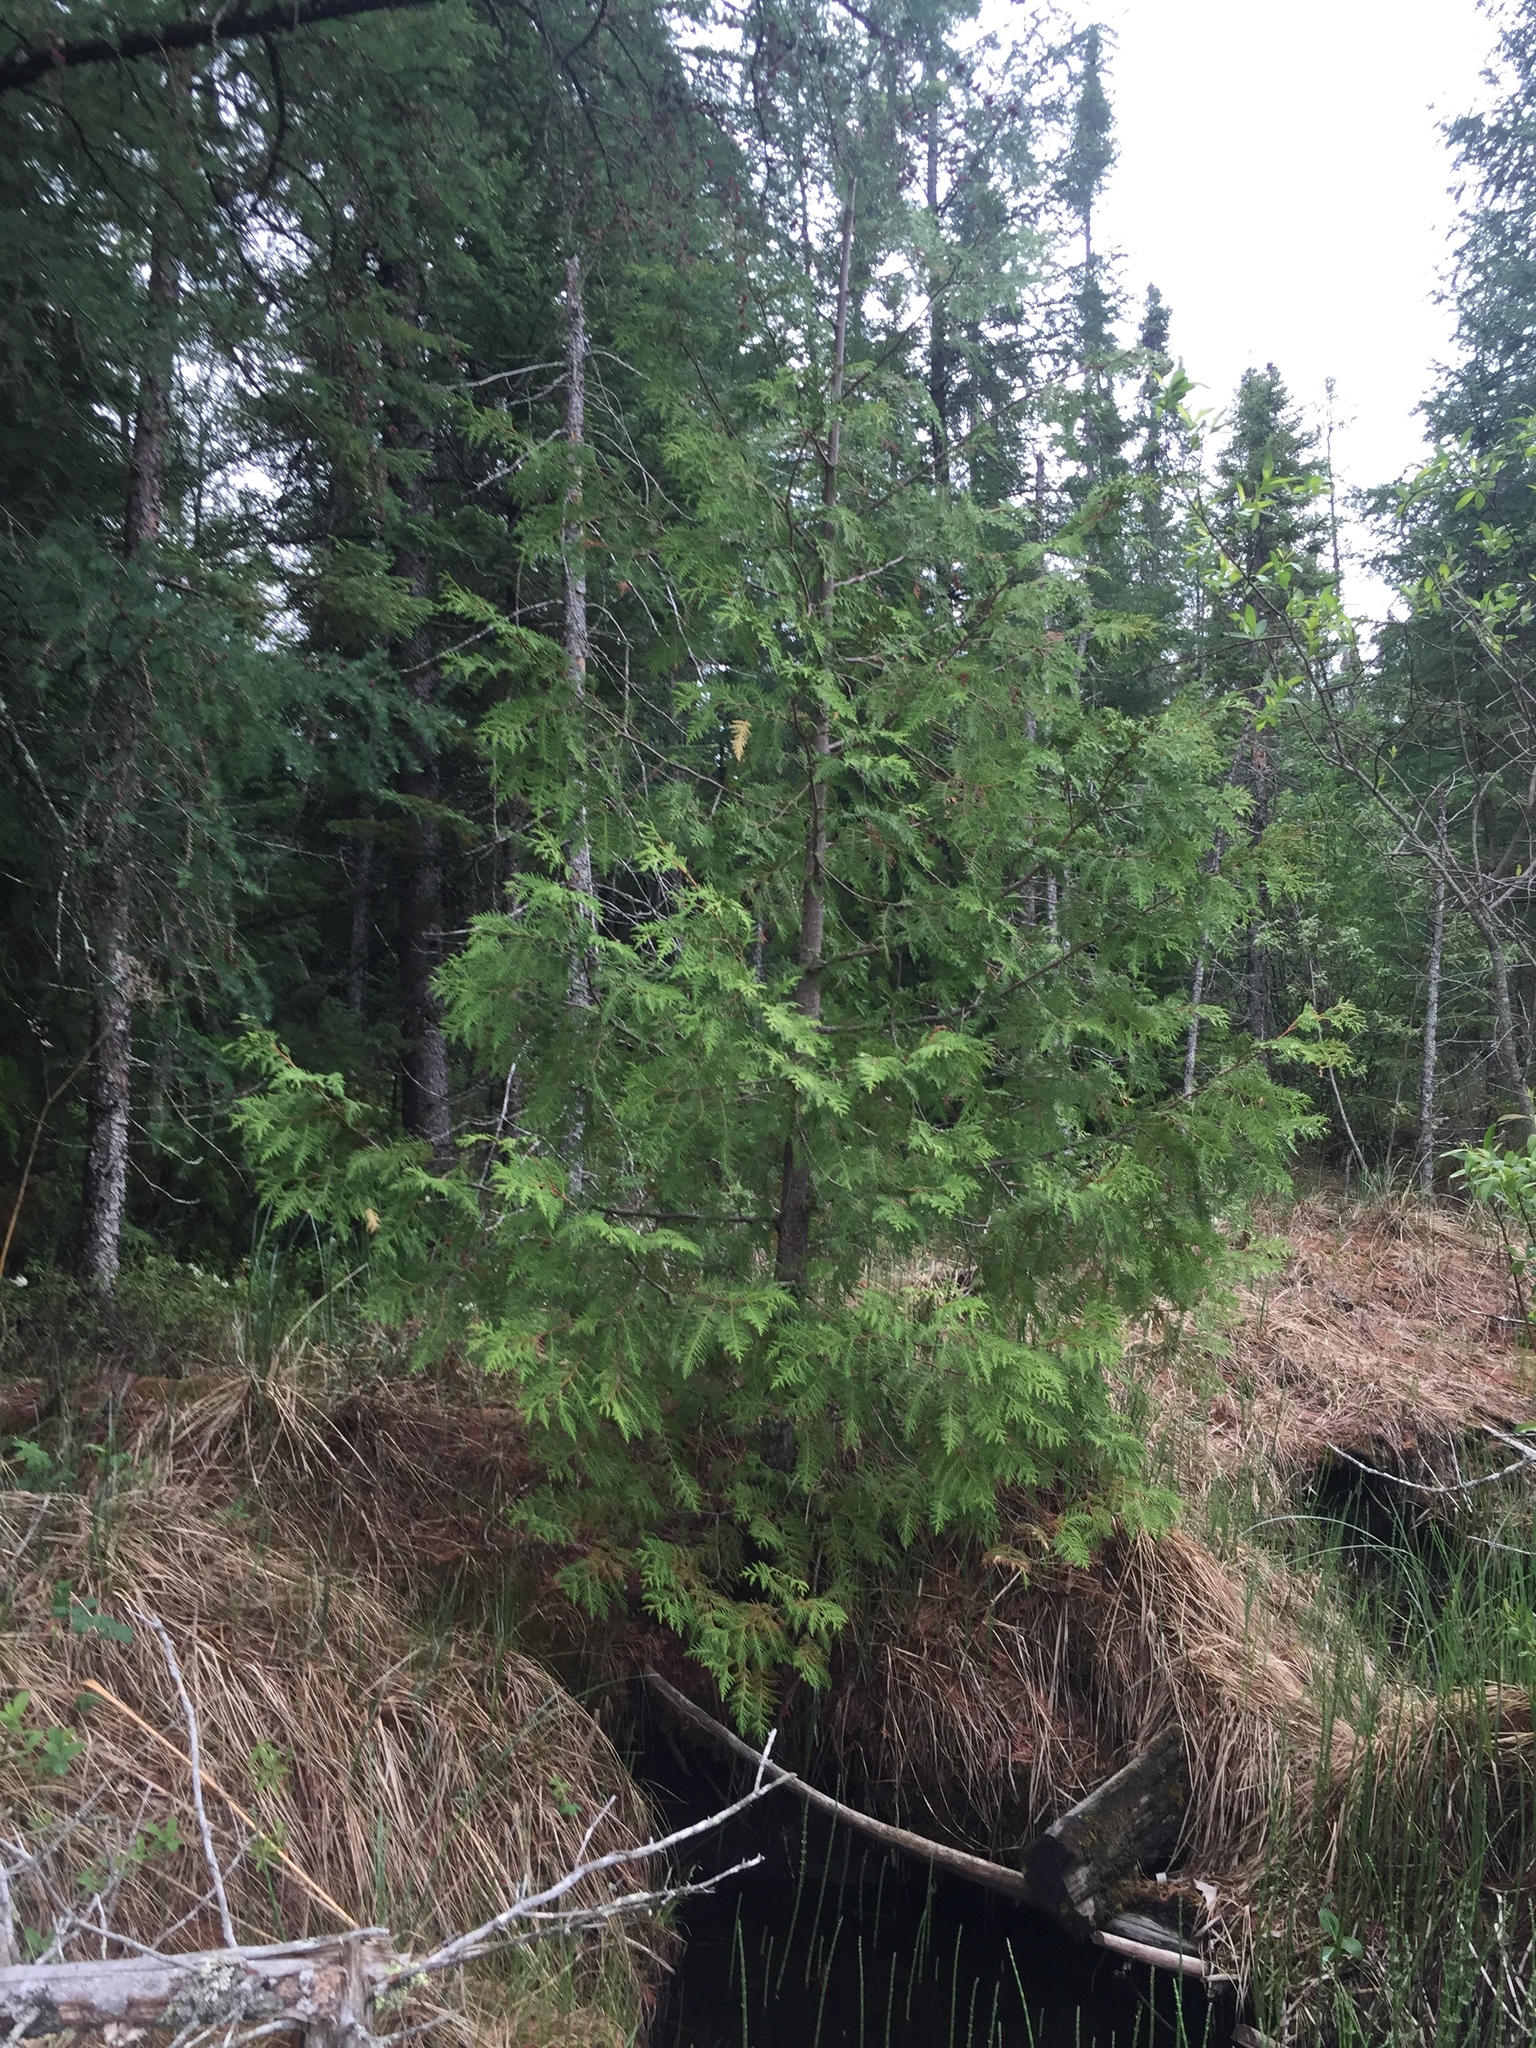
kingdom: Plantae
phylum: Tracheophyta
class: Pinopsida
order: Pinales
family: Cupressaceae
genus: Thuja
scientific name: Thuja occidentalis
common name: Northern white-cedar
